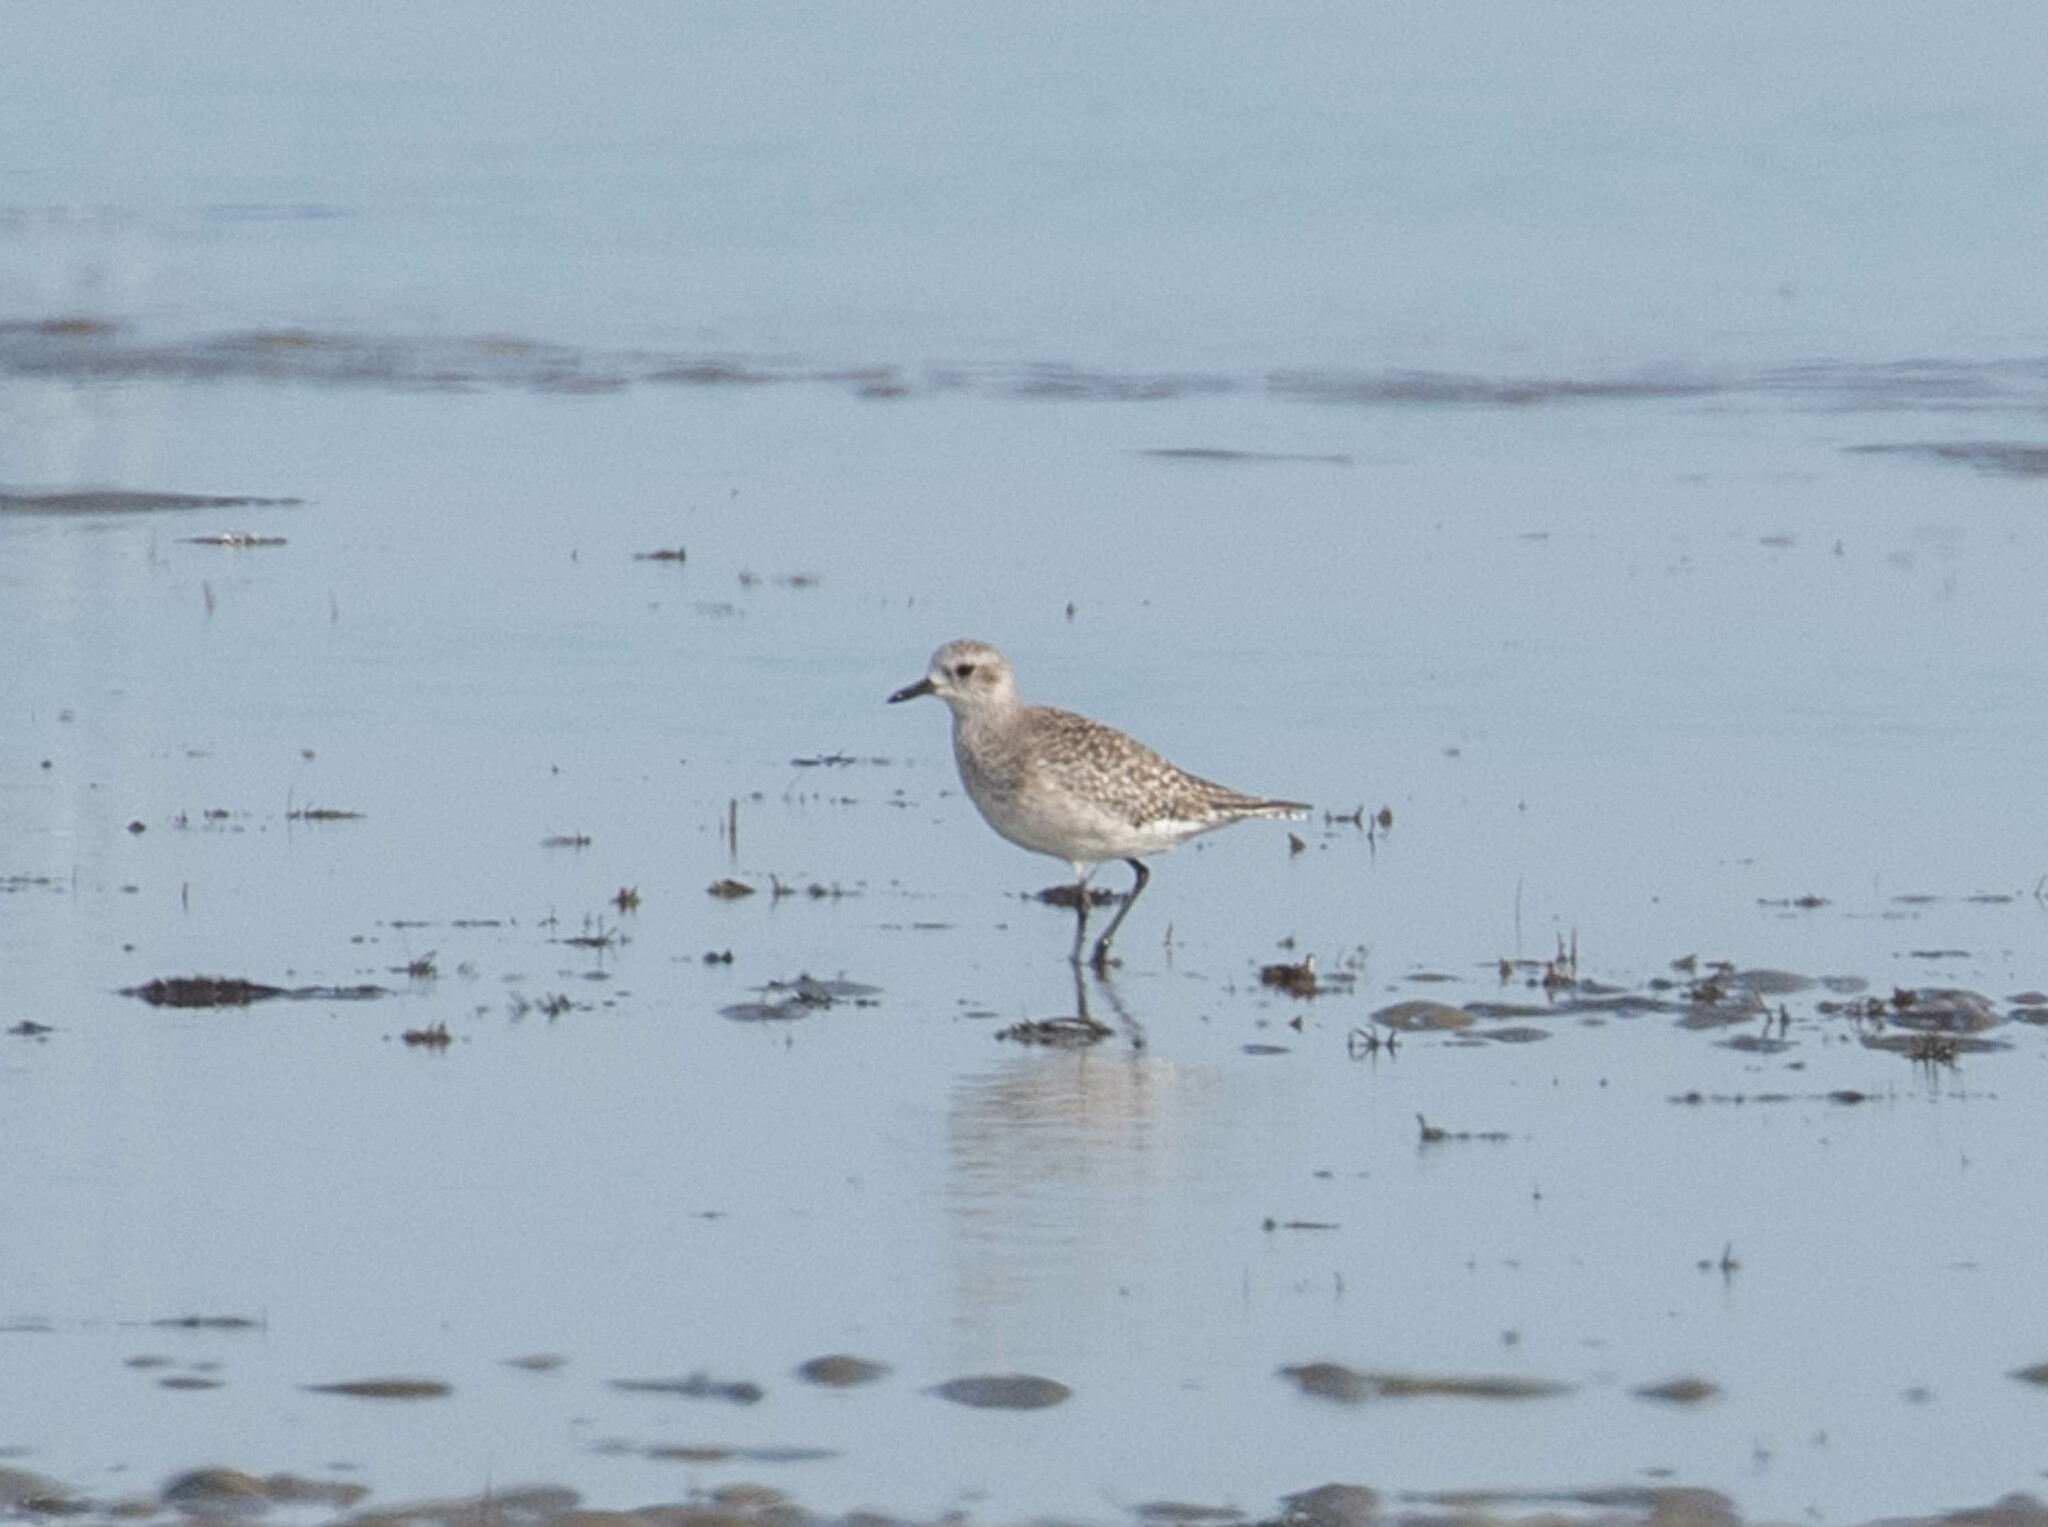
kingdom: Animalia
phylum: Chordata
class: Aves
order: Charadriiformes
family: Charadriidae
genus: Pluvialis
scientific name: Pluvialis squatarola
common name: Grey plover
